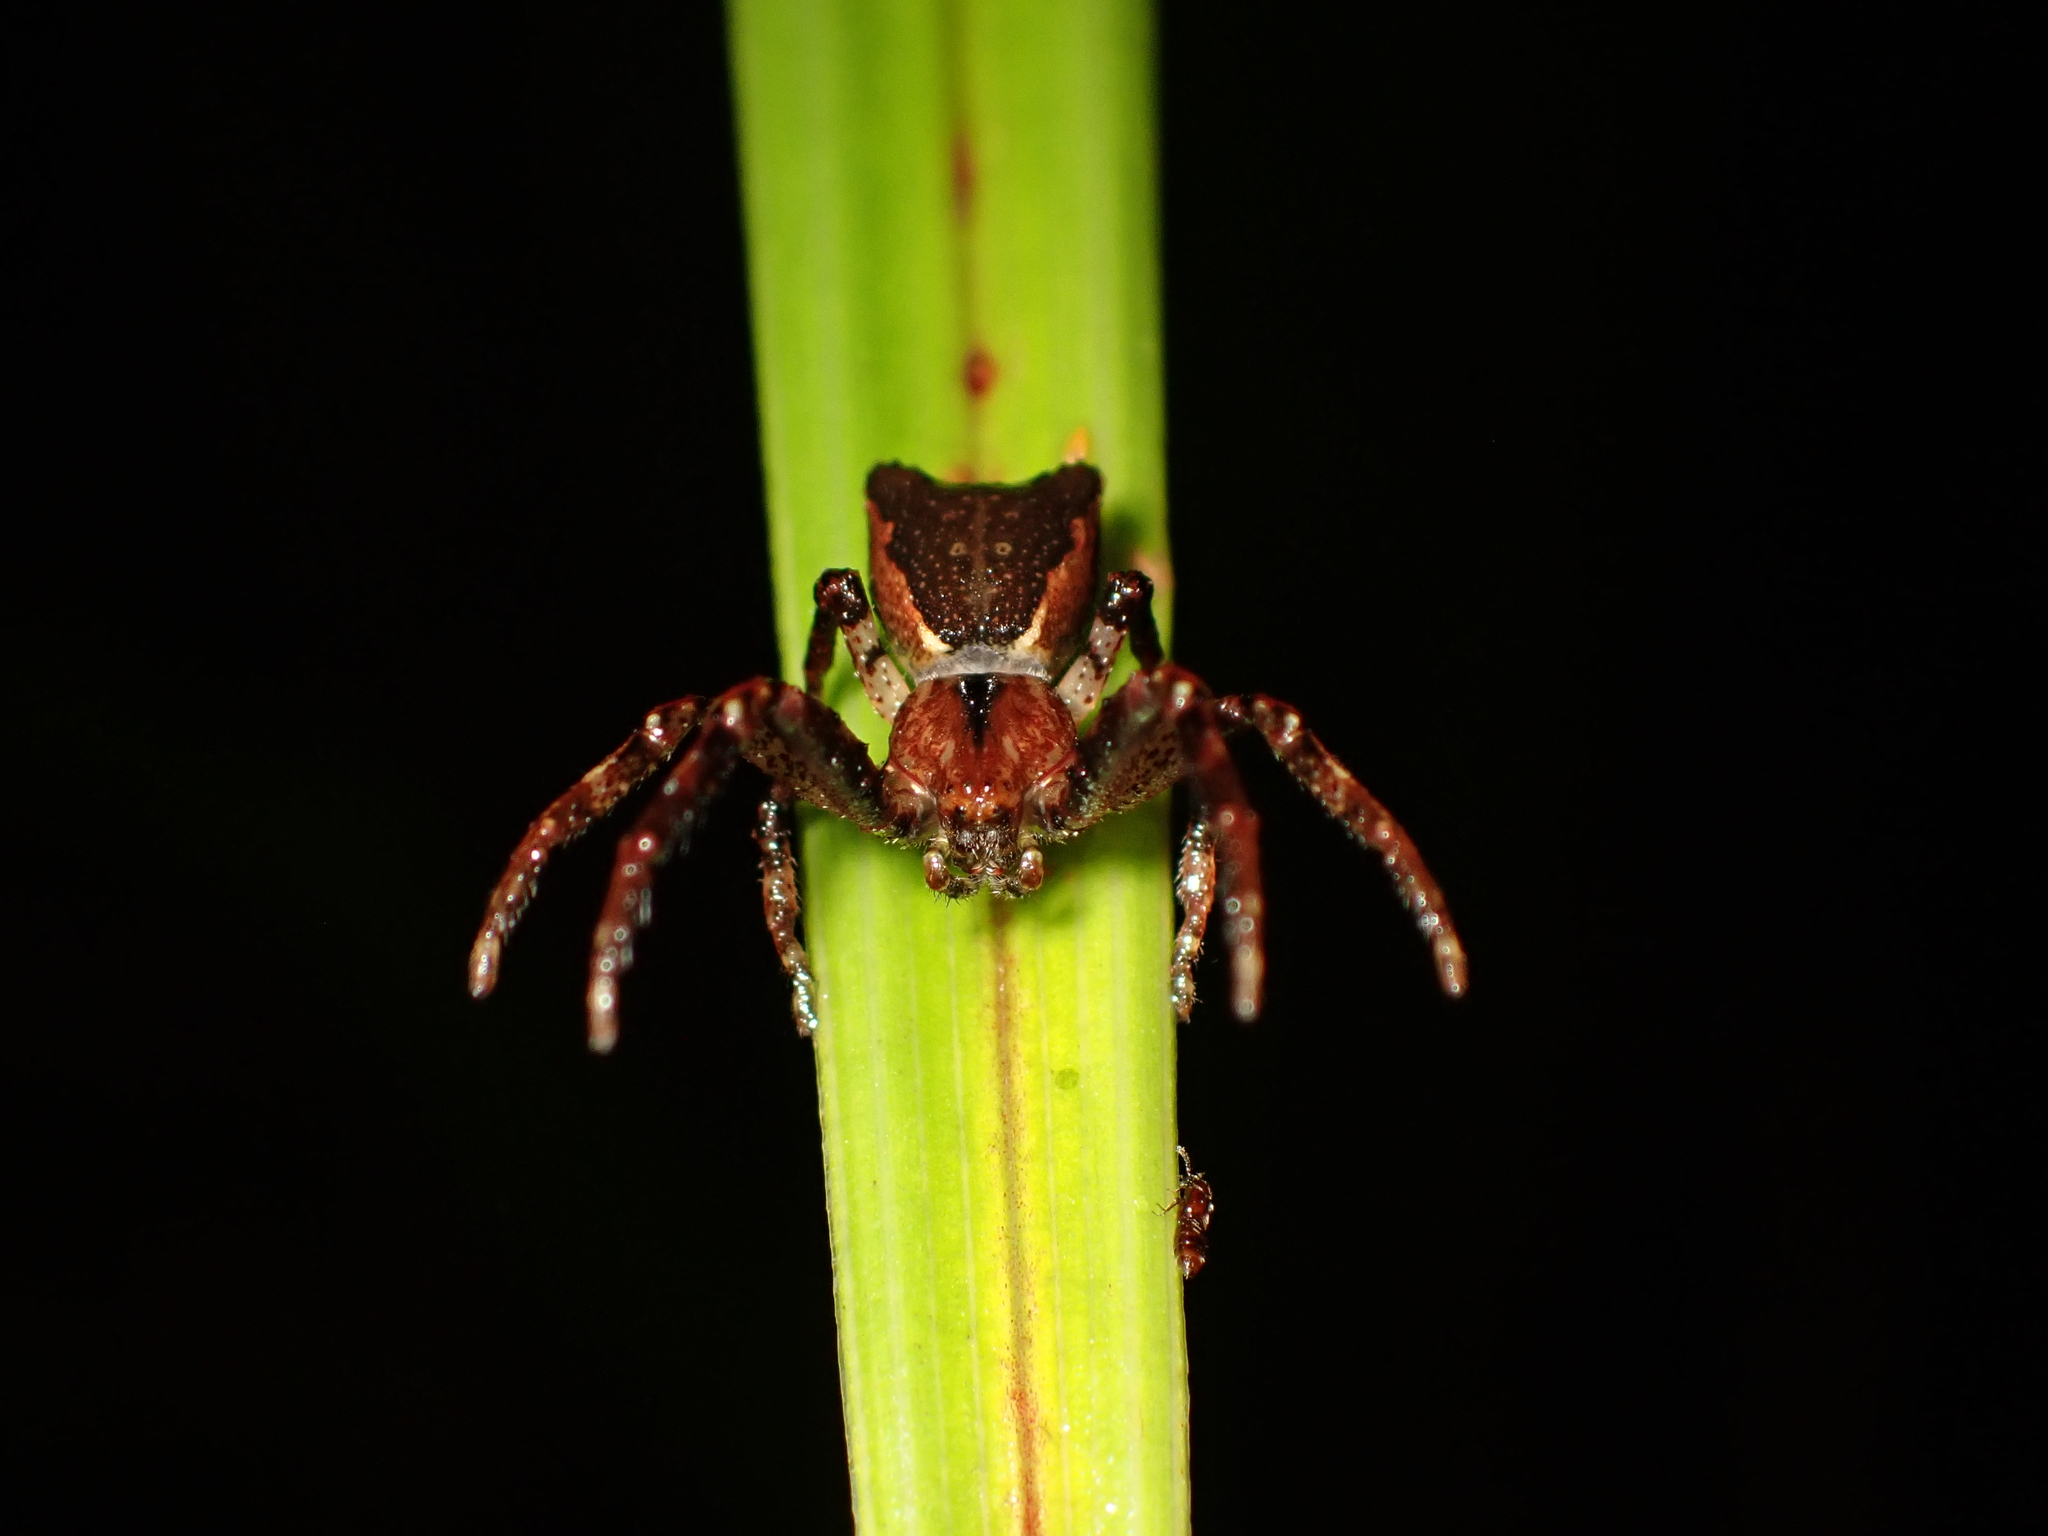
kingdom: Animalia
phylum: Arthropoda
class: Arachnida
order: Araneae
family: Thomisidae
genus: Sidymella
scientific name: Sidymella angularis
